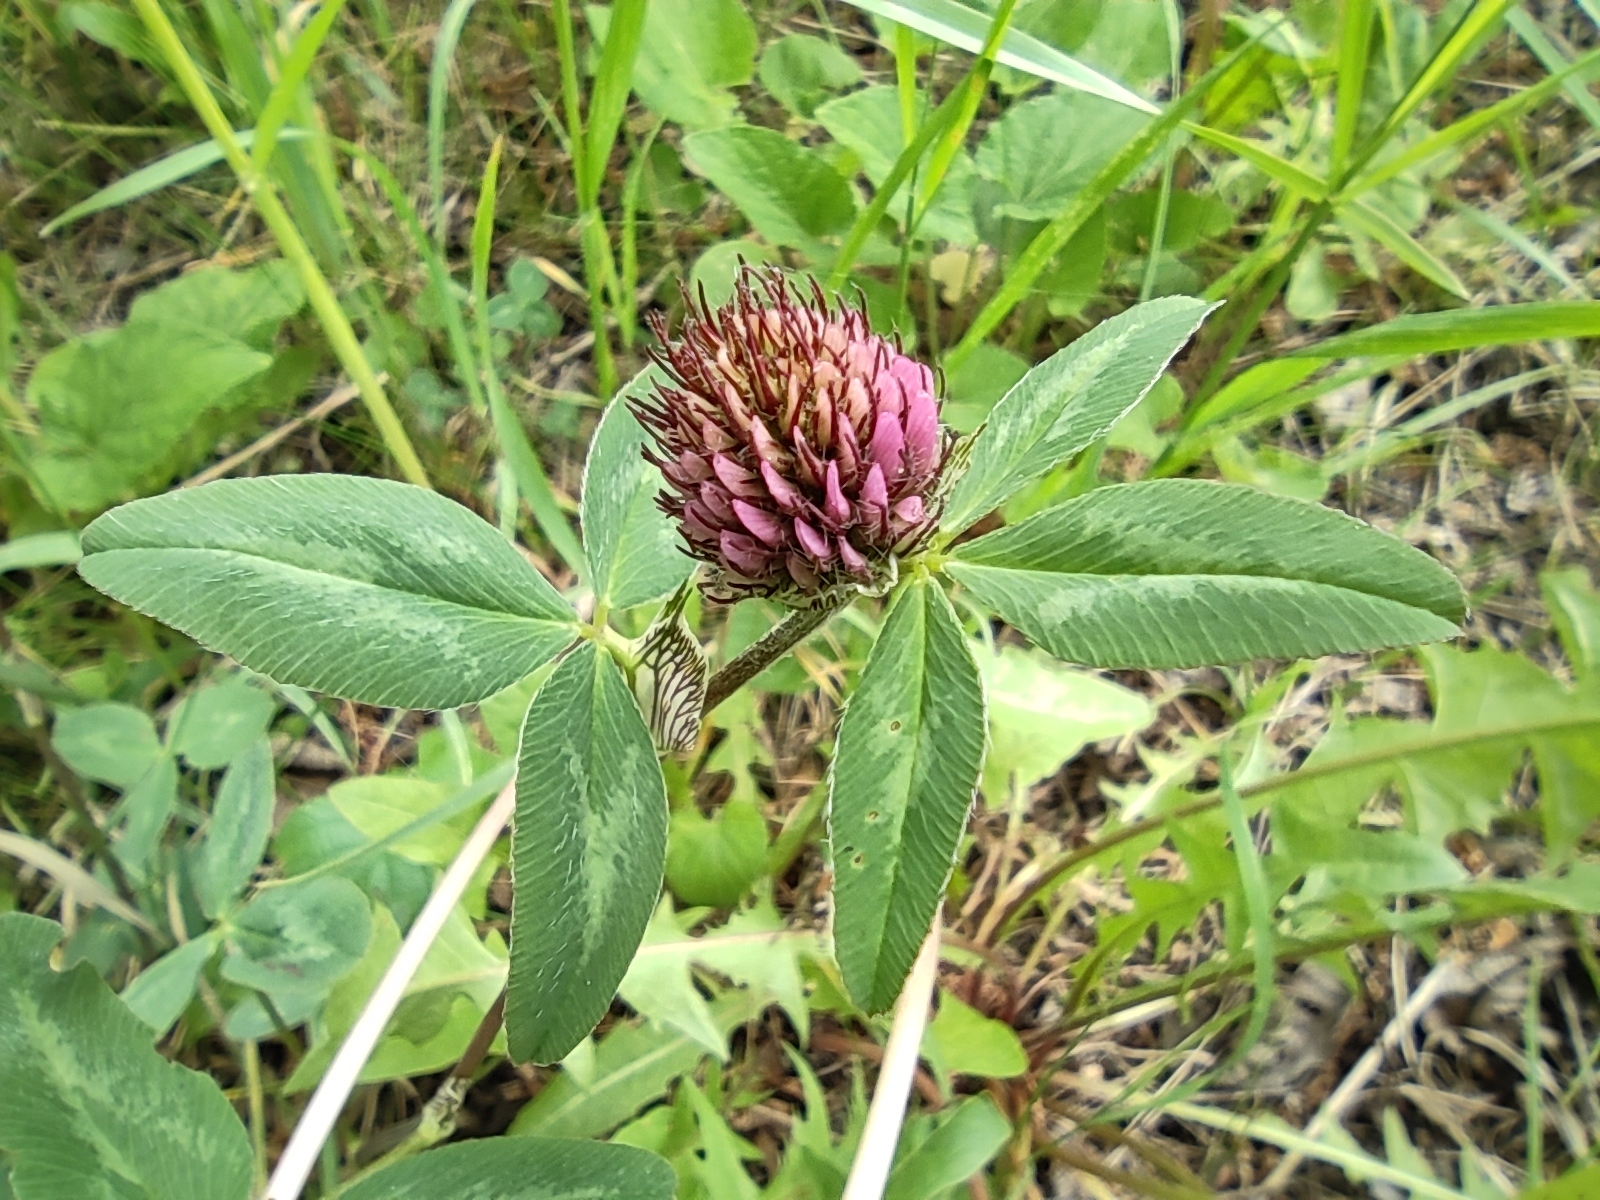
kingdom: Plantae
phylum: Tracheophyta
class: Magnoliopsida
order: Fabales
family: Fabaceae
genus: Trifolium
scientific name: Trifolium pratense
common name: Red clover
